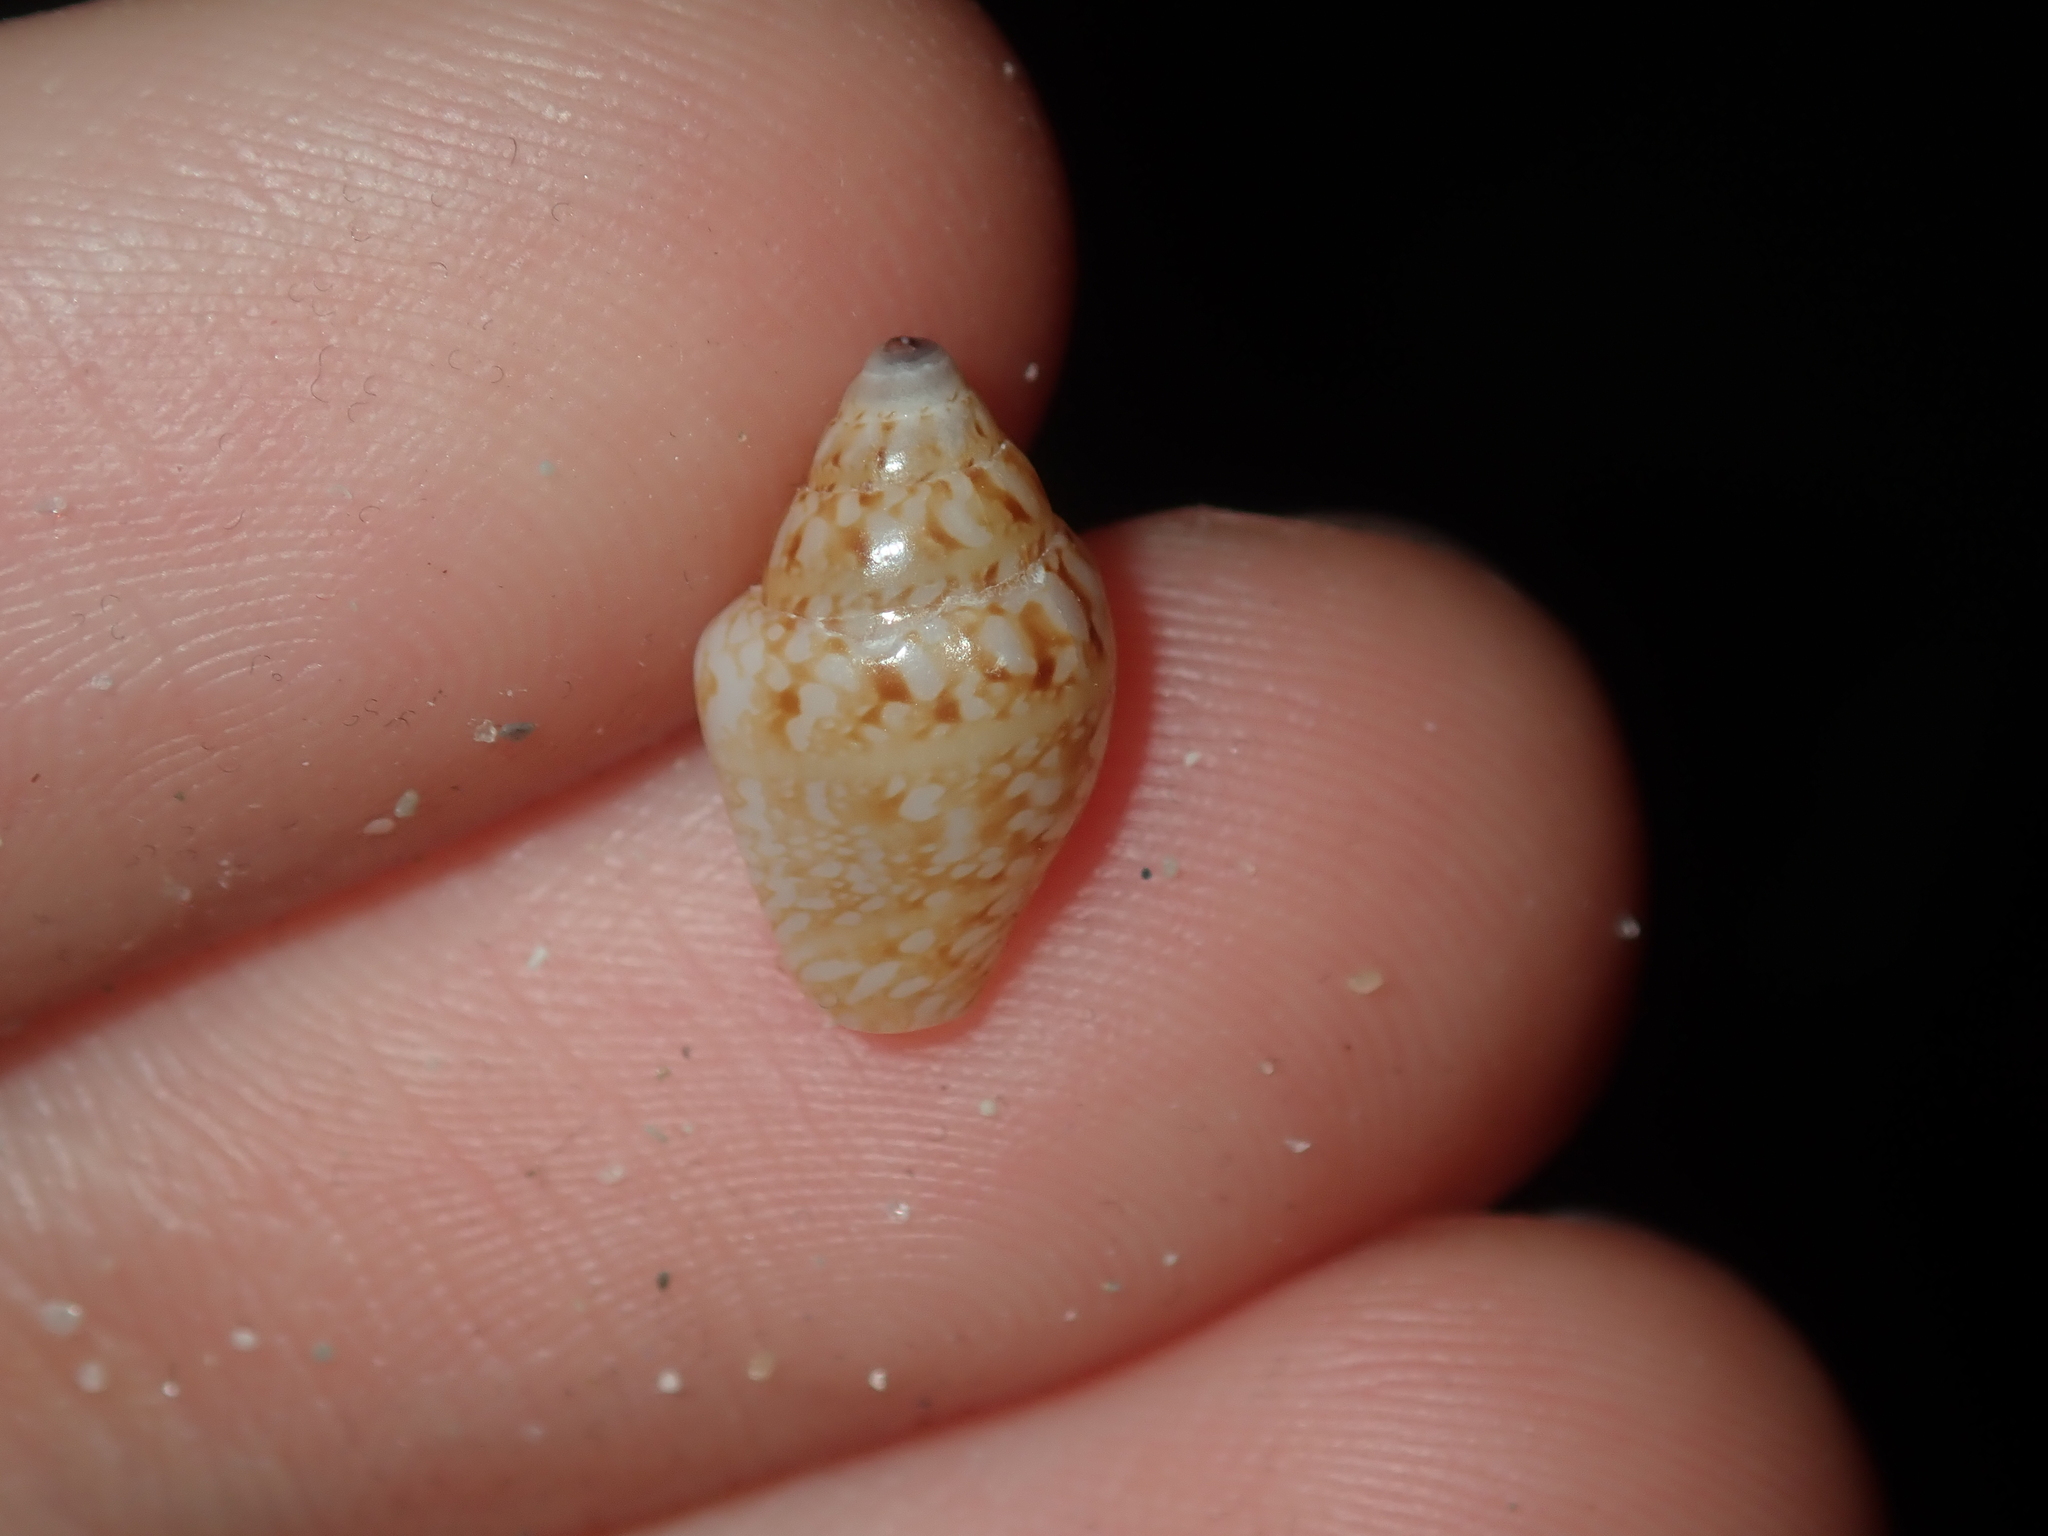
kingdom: Animalia
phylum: Mollusca
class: Gastropoda
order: Neogastropoda
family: Columbellidae
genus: Euplica
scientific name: Euplica bidentata
